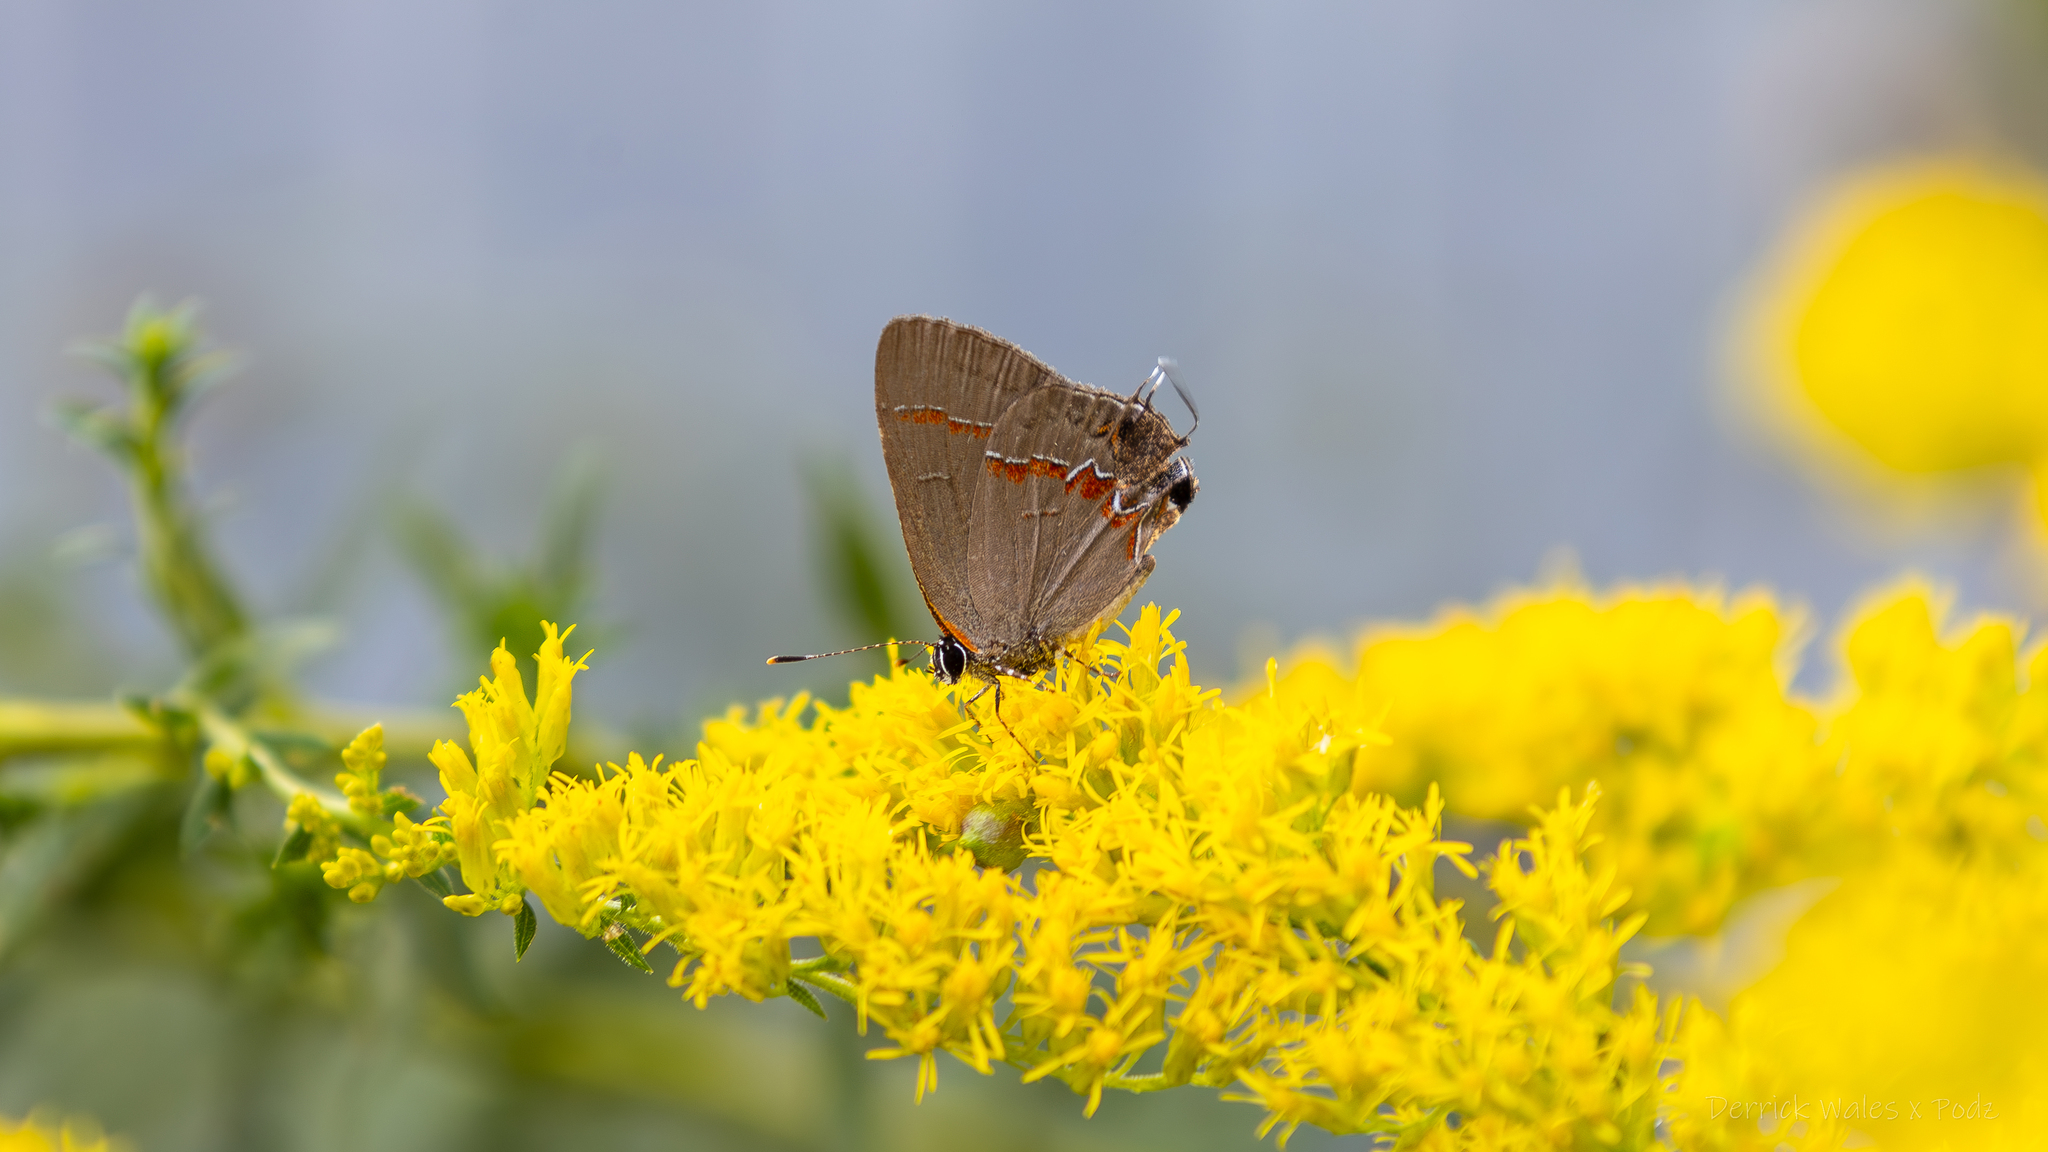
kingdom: Animalia
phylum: Arthropoda
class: Insecta
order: Lepidoptera
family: Lycaenidae
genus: Calycopis
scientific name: Calycopis cecrops
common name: Red-banded hairstreak
